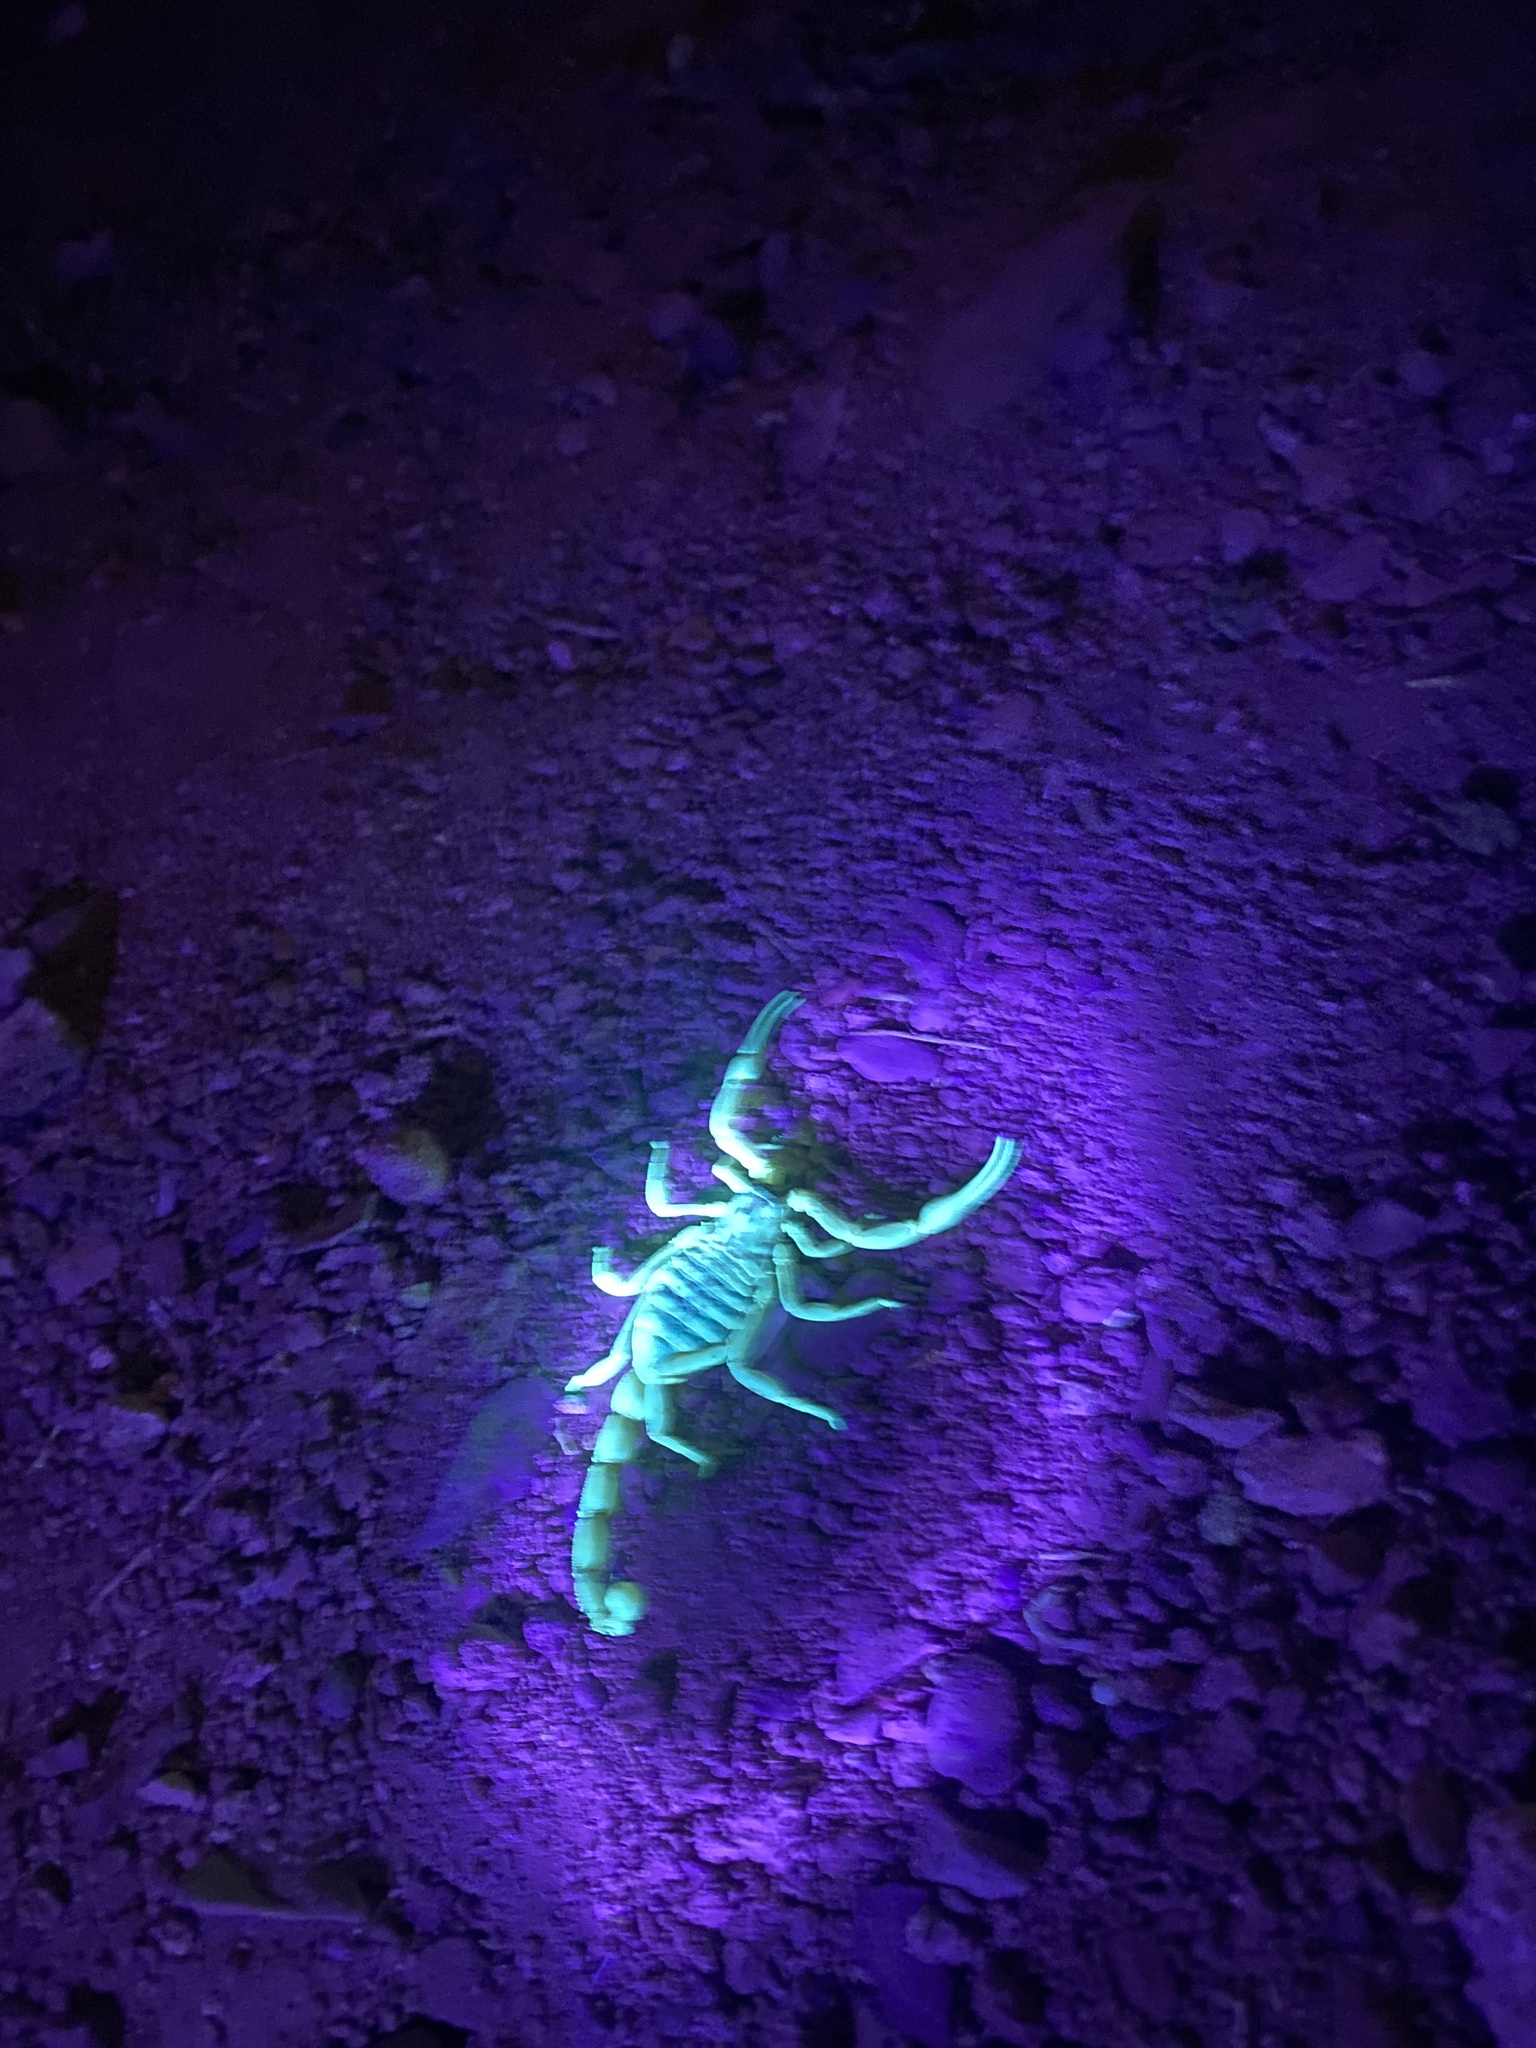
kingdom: Animalia
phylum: Arthropoda
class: Arachnida
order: Scorpiones
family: Buthidae
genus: Odontobuthus
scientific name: Odontobuthus doriae
